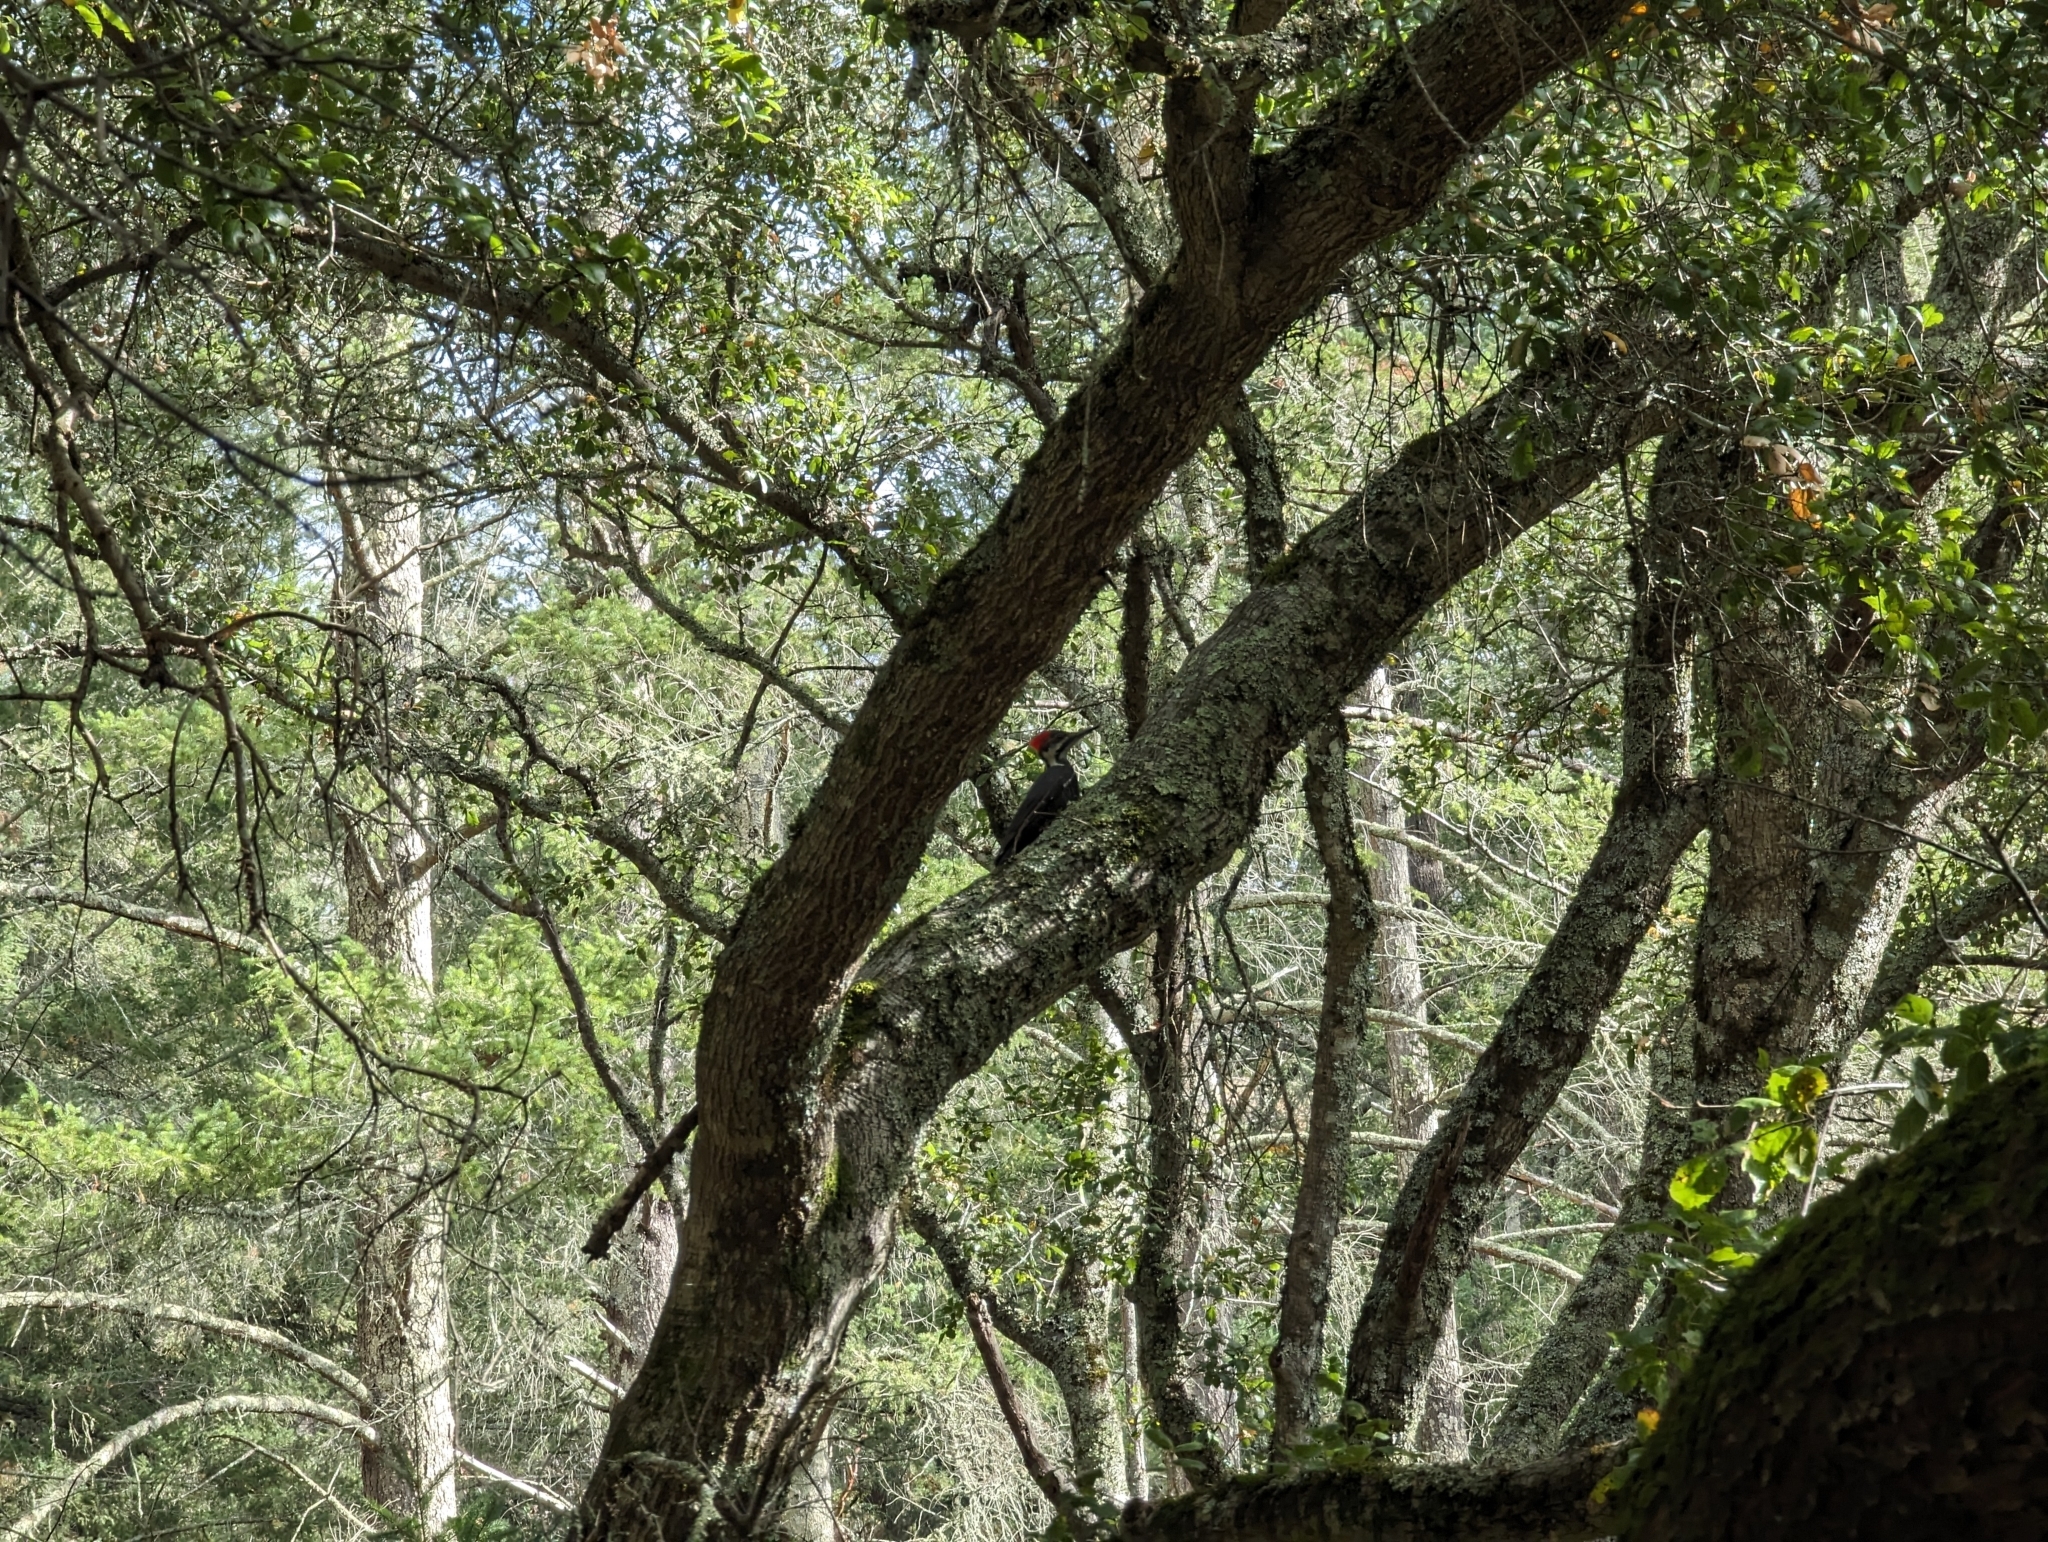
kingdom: Animalia
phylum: Chordata
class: Aves
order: Piciformes
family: Picidae
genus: Dryocopus
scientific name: Dryocopus pileatus
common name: Pileated woodpecker
